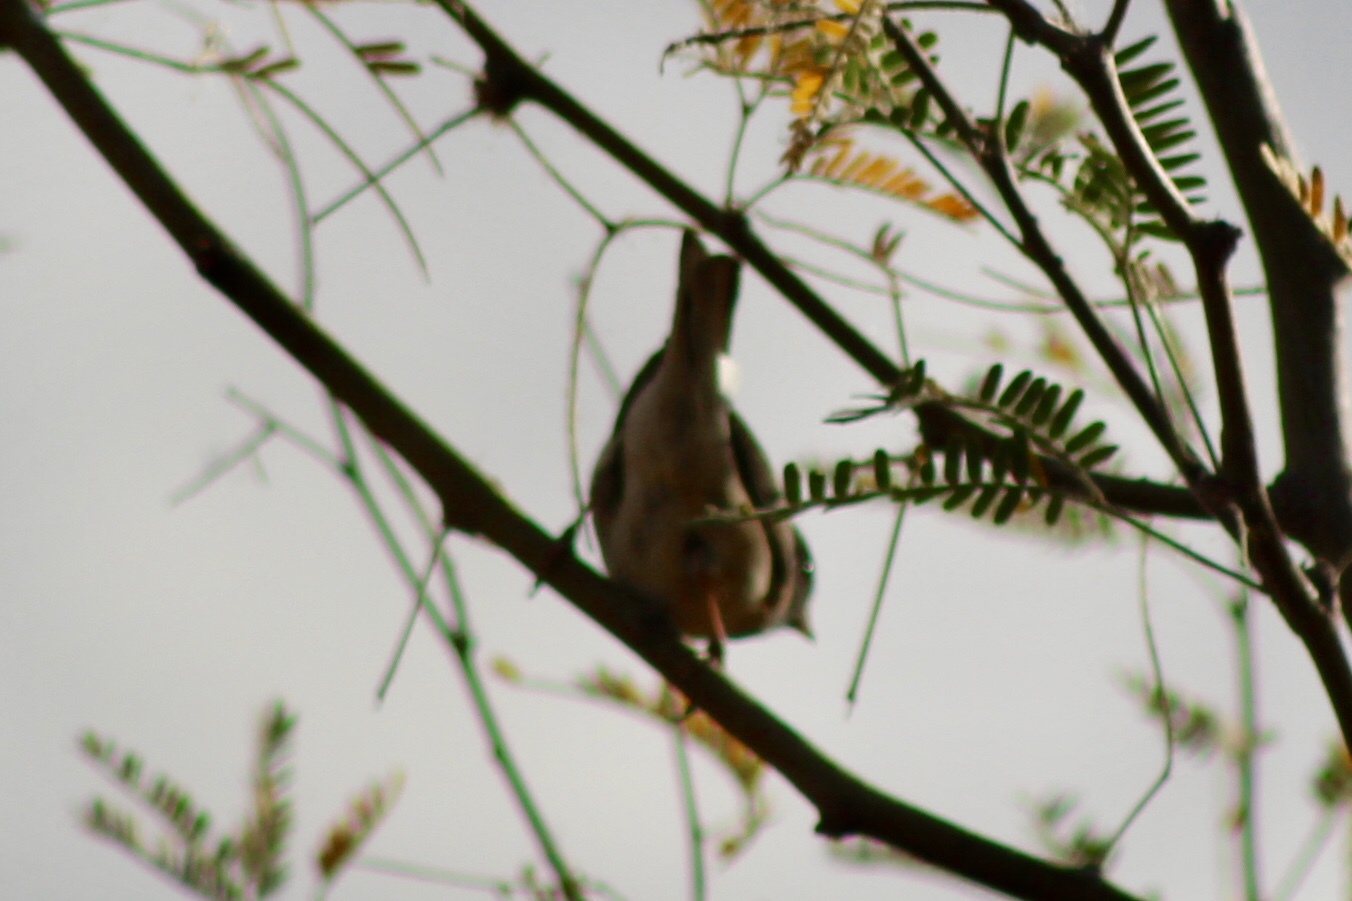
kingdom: Animalia
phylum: Chordata
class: Aves
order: Passeriformes
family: Passerellidae
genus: Junco
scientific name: Junco hyemalis
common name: Dark-eyed junco
